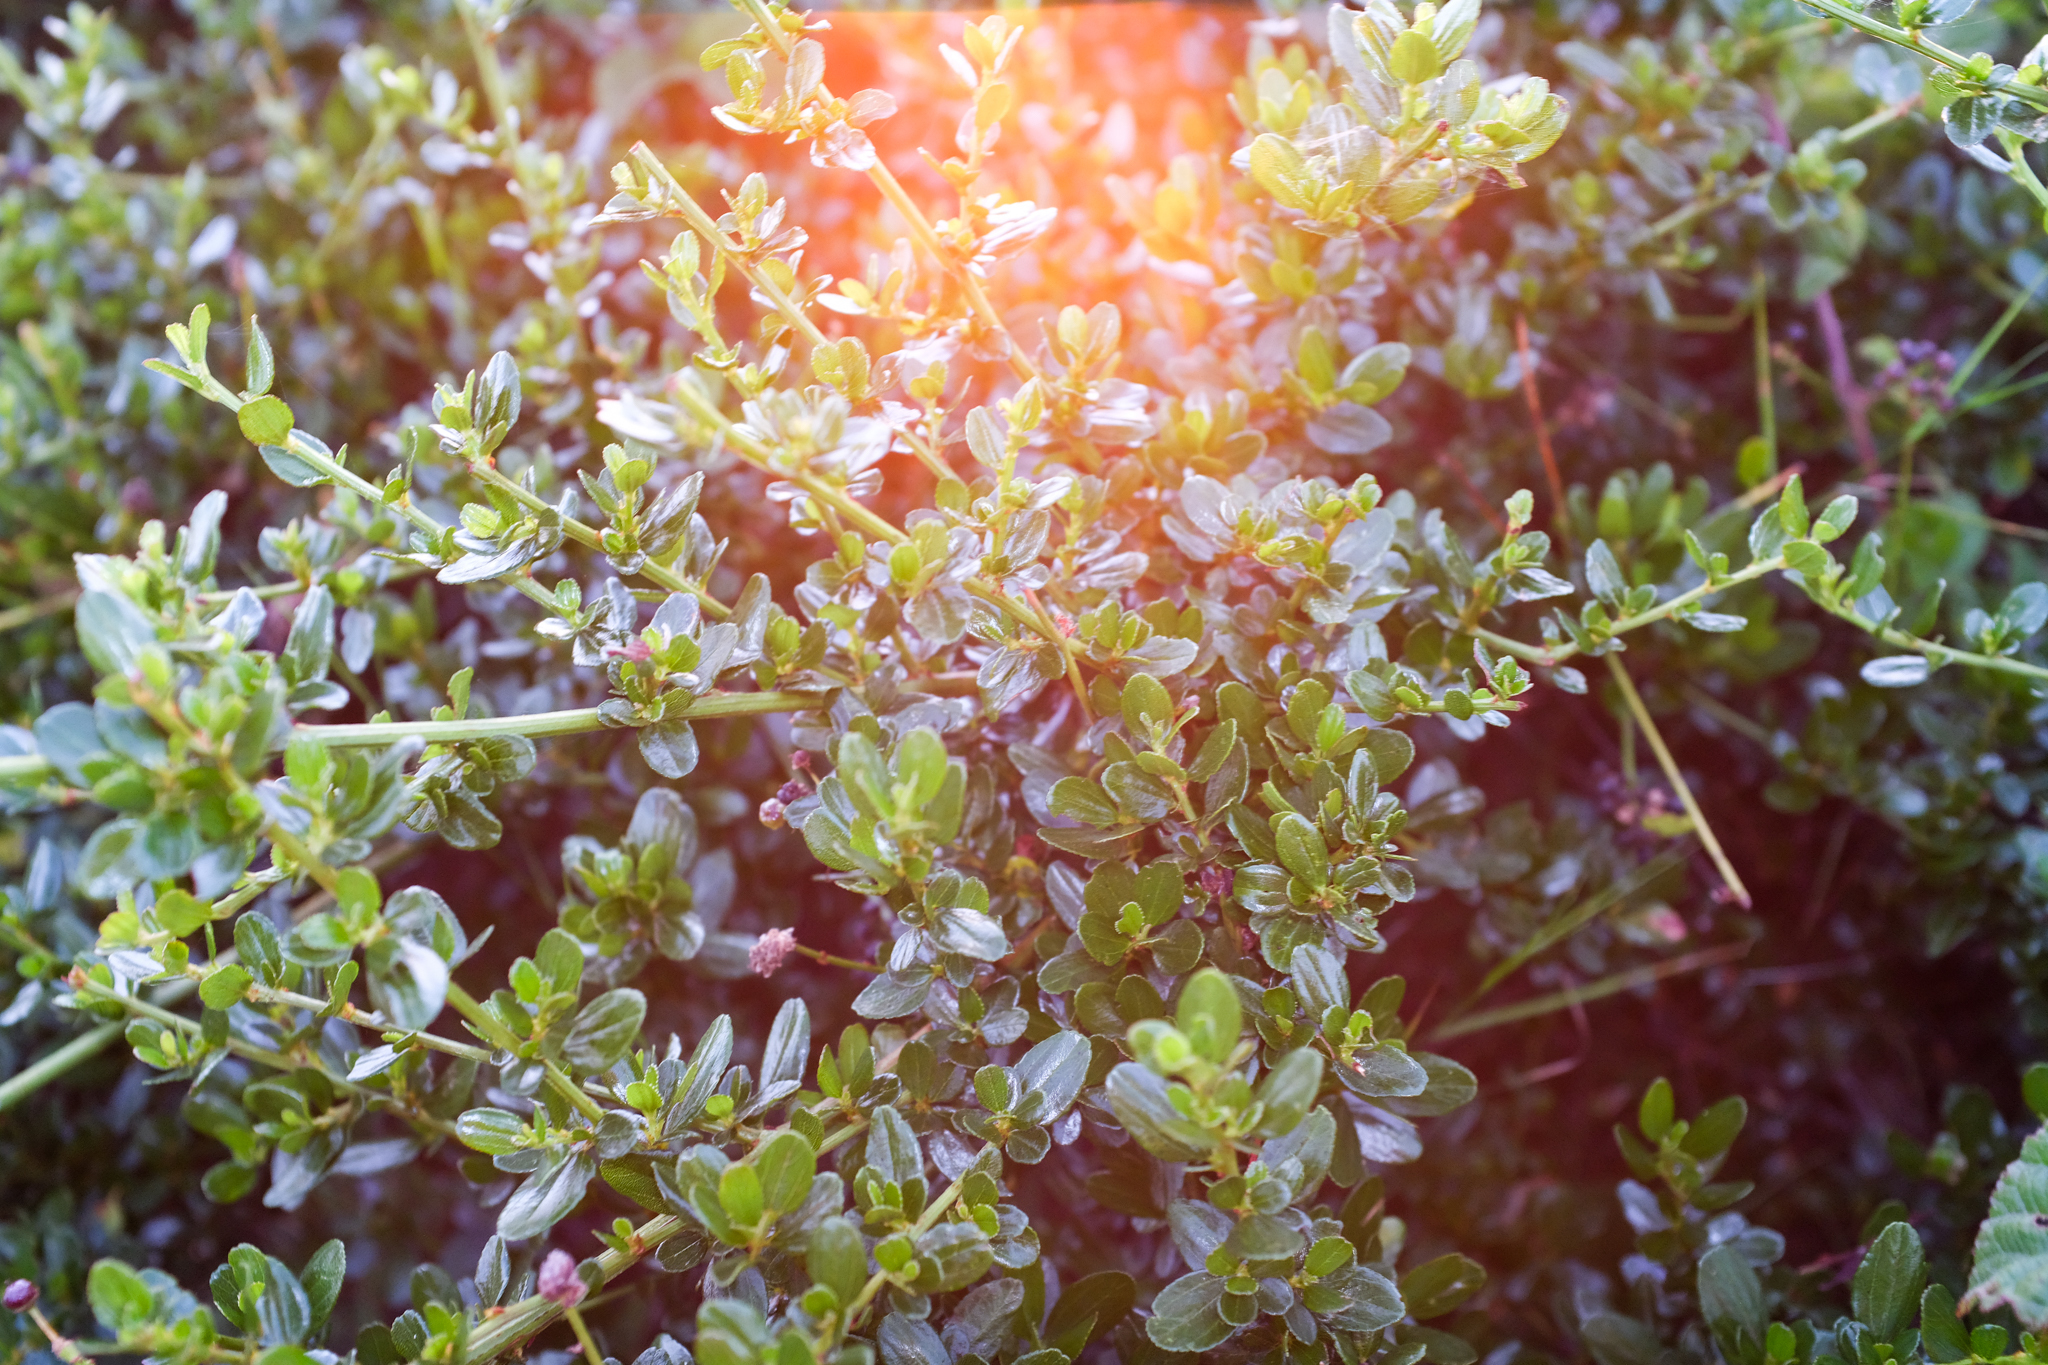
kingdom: Plantae
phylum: Tracheophyta
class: Magnoliopsida
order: Rosales
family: Rhamnaceae
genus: Ceanothus
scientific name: Ceanothus thyrsiflorus
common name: California-lilac
